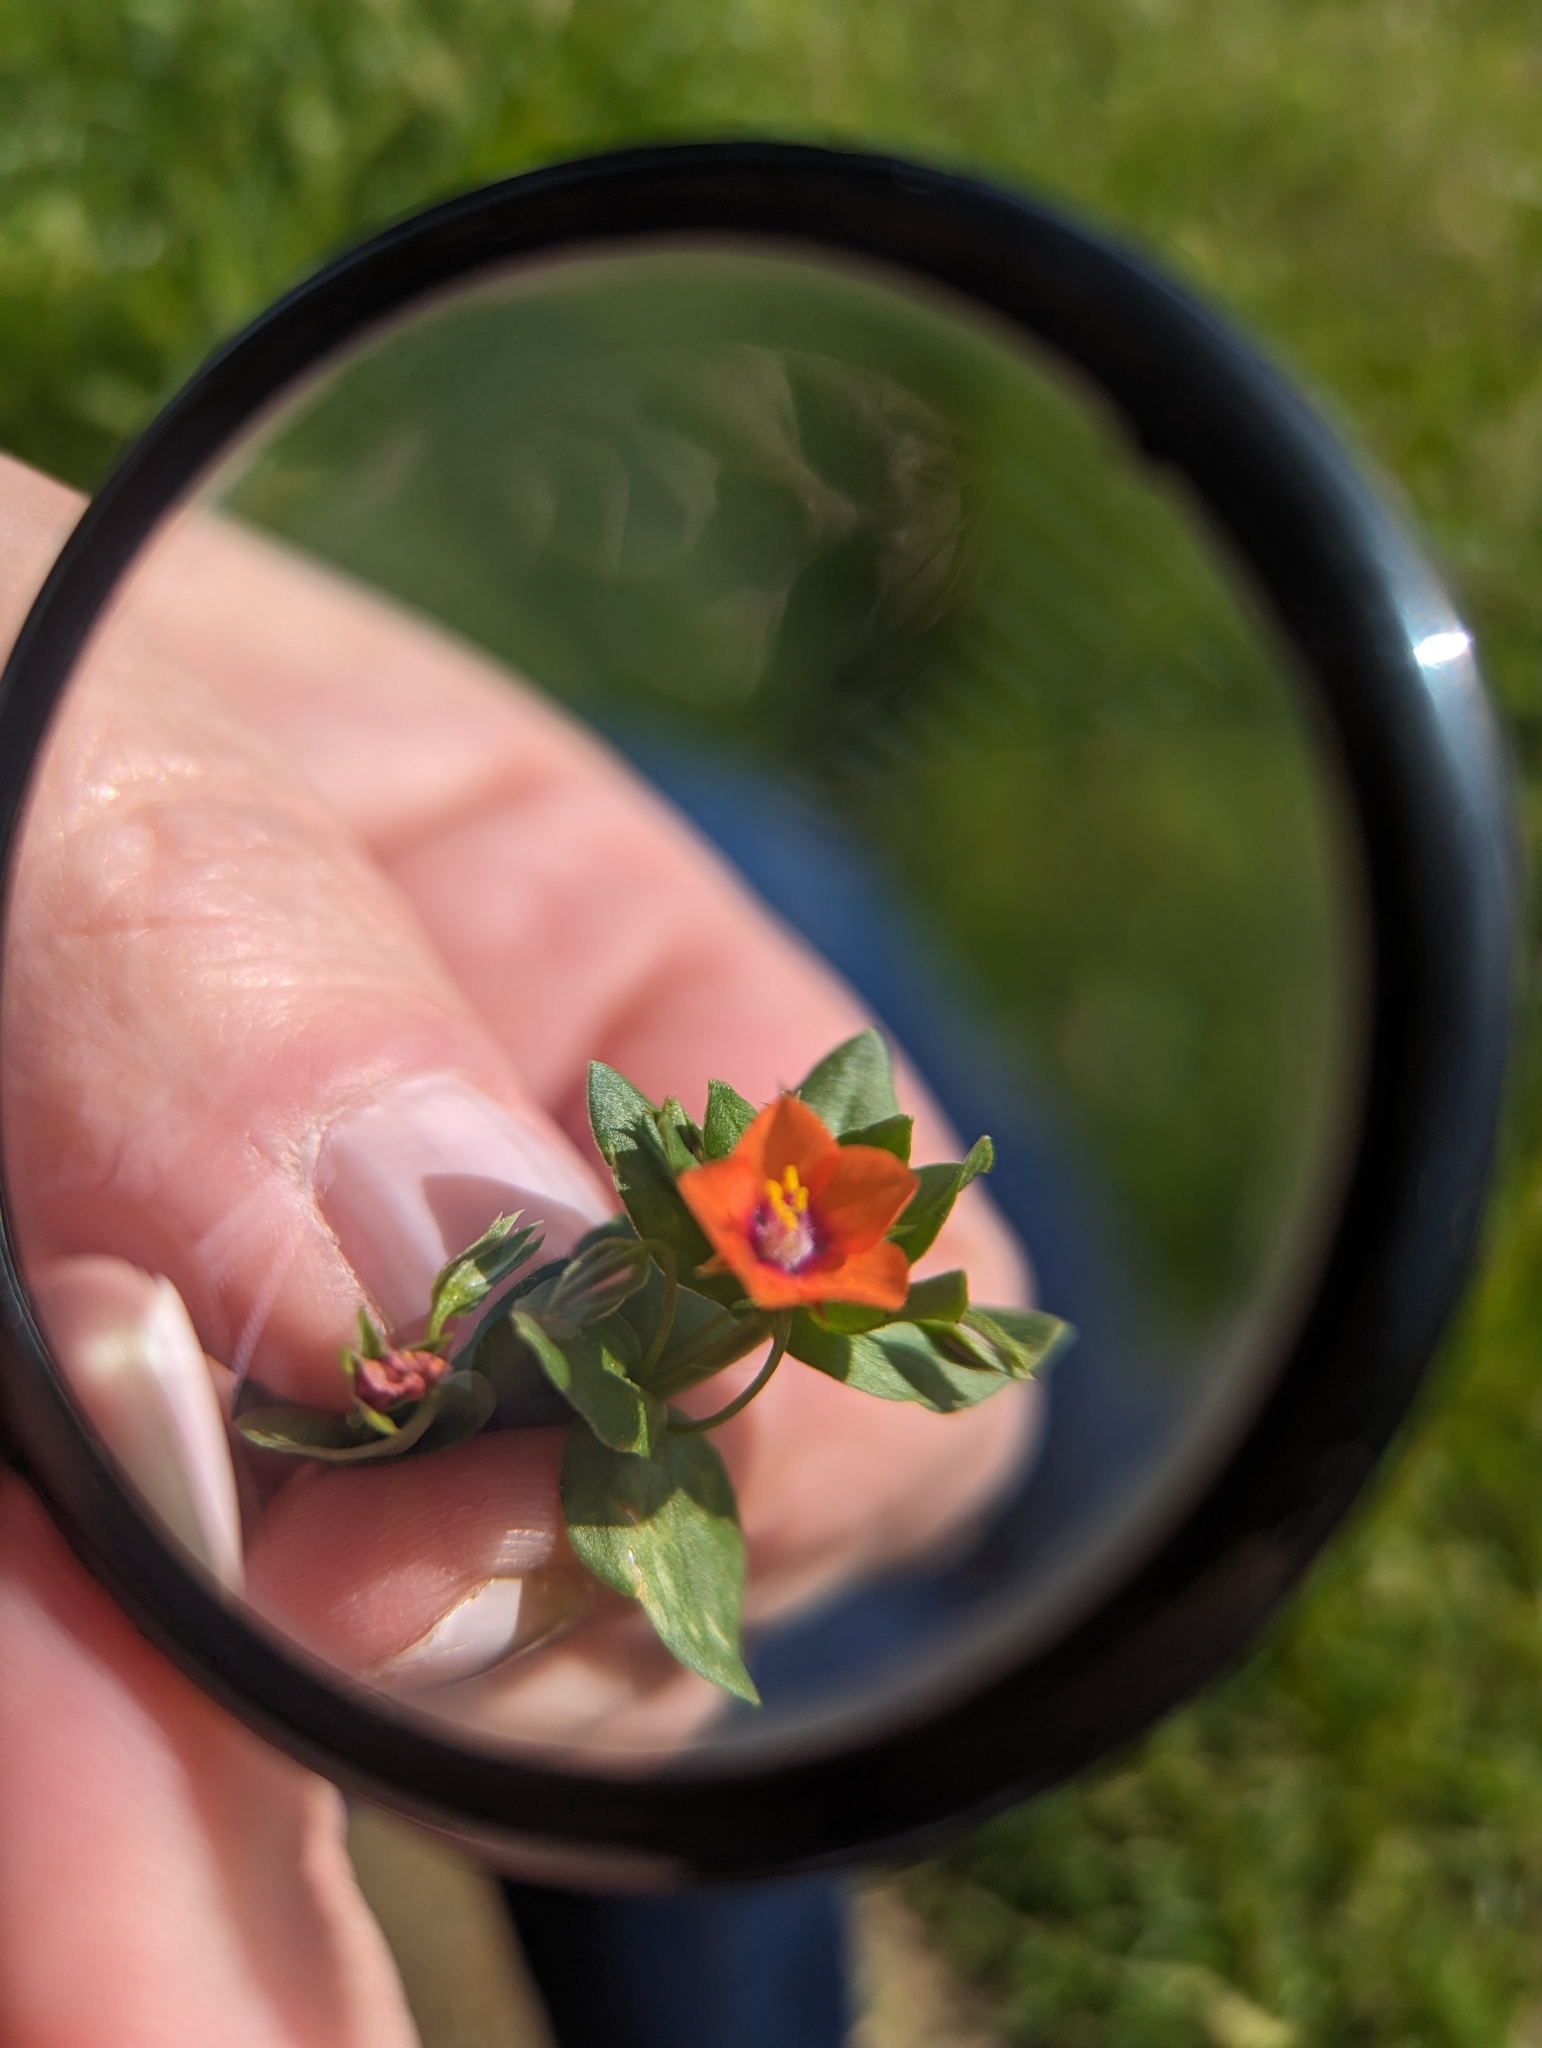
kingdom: Plantae
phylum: Tracheophyta
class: Magnoliopsida
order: Ericales
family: Primulaceae
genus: Lysimachia
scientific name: Lysimachia arvensis
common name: Scarlet pimpernel
